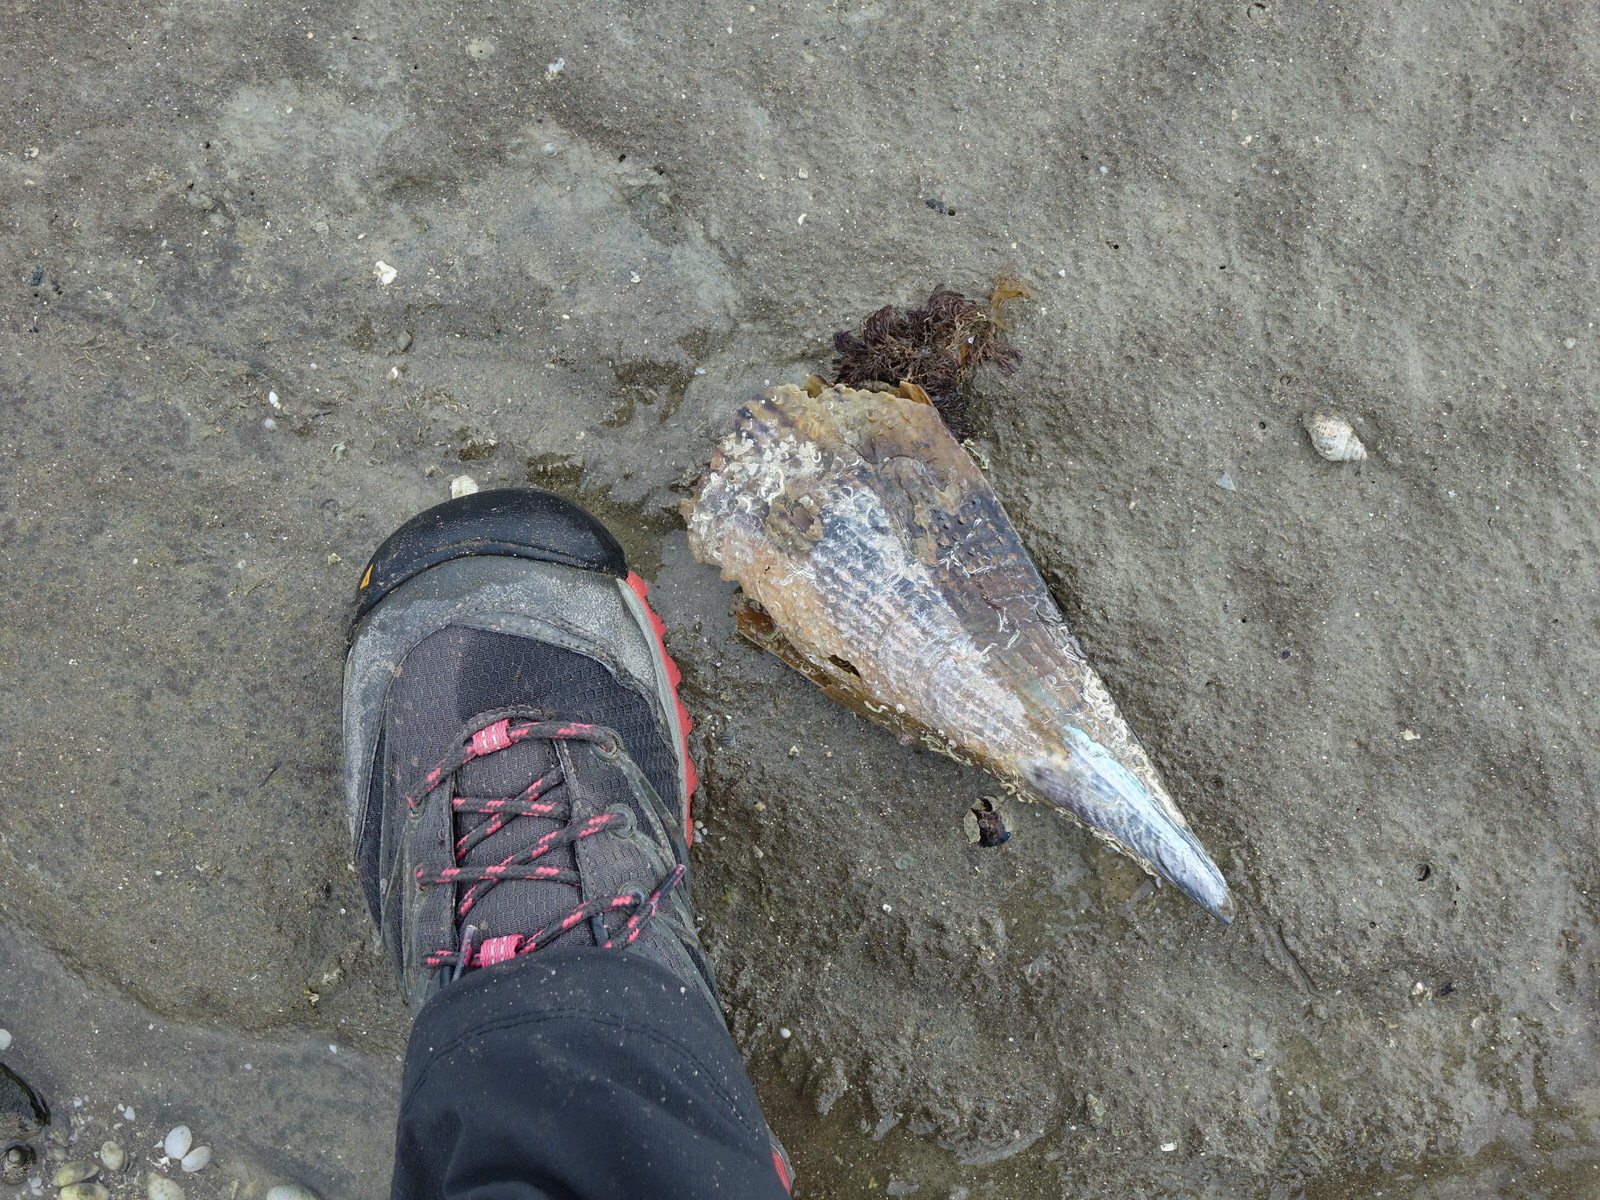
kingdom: Animalia
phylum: Mollusca
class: Bivalvia
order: Ostreida
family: Pinnidae
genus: Atrina
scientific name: Atrina zelandica
